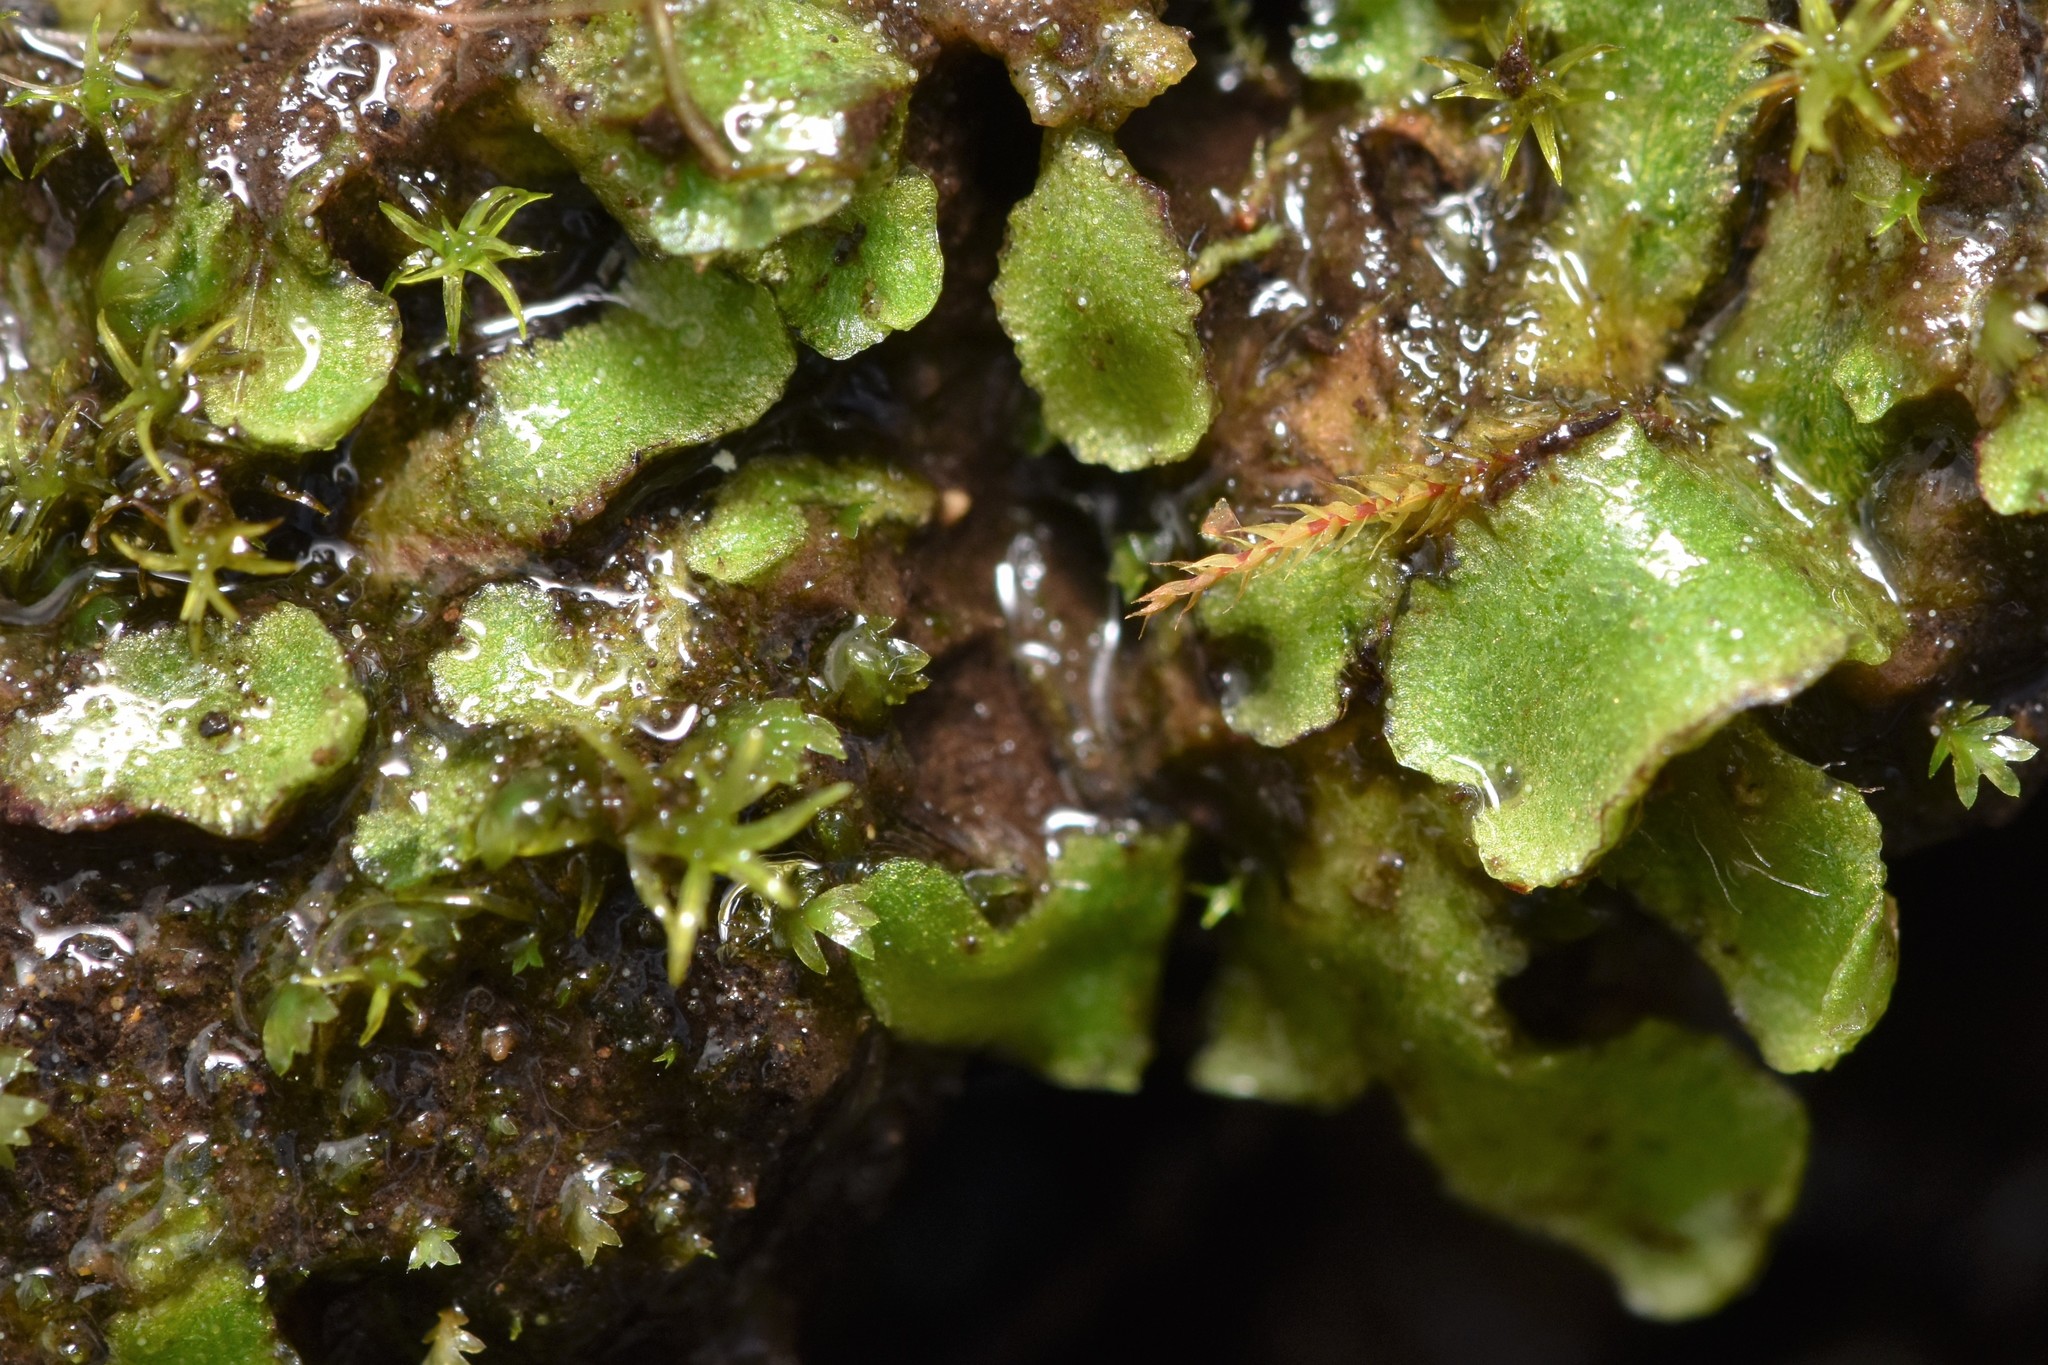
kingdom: Plantae
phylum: Marchantiophyta
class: Marchantiopsida
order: Marchantiales
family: Aytoniaceae
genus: Mannia
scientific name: Mannia gracilis
